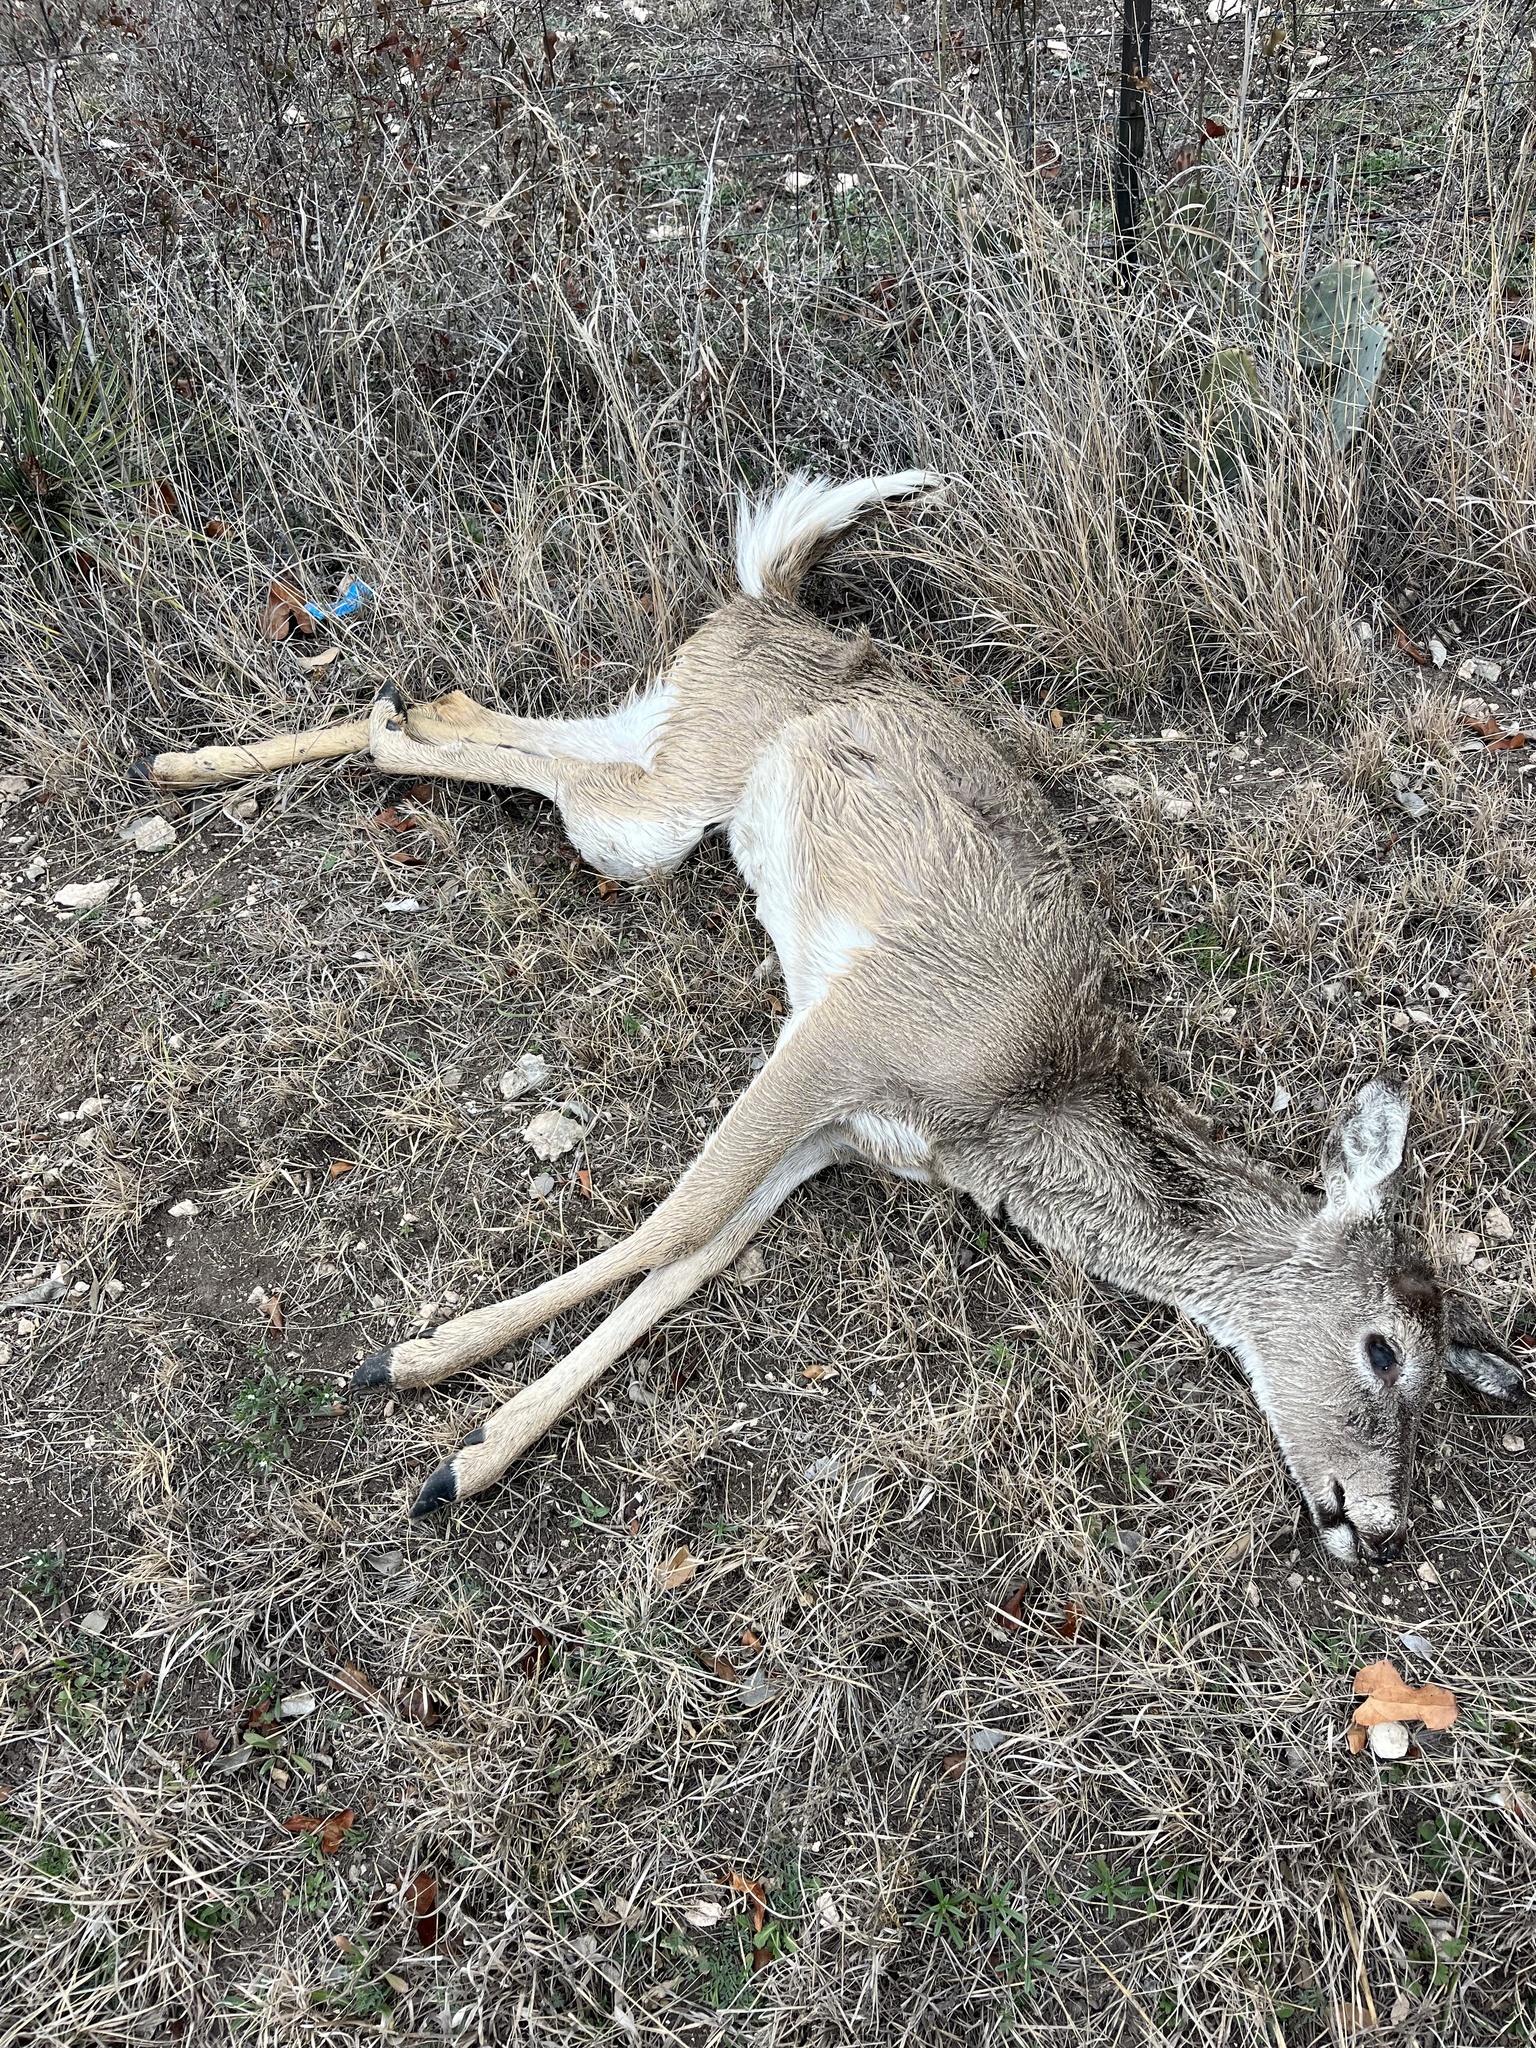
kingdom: Animalia
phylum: Chordata
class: Mammalia
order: Artiodactyla
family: Cervidae
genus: Odocoileus
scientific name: Odocoileus virginianus
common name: White-tailed deer
